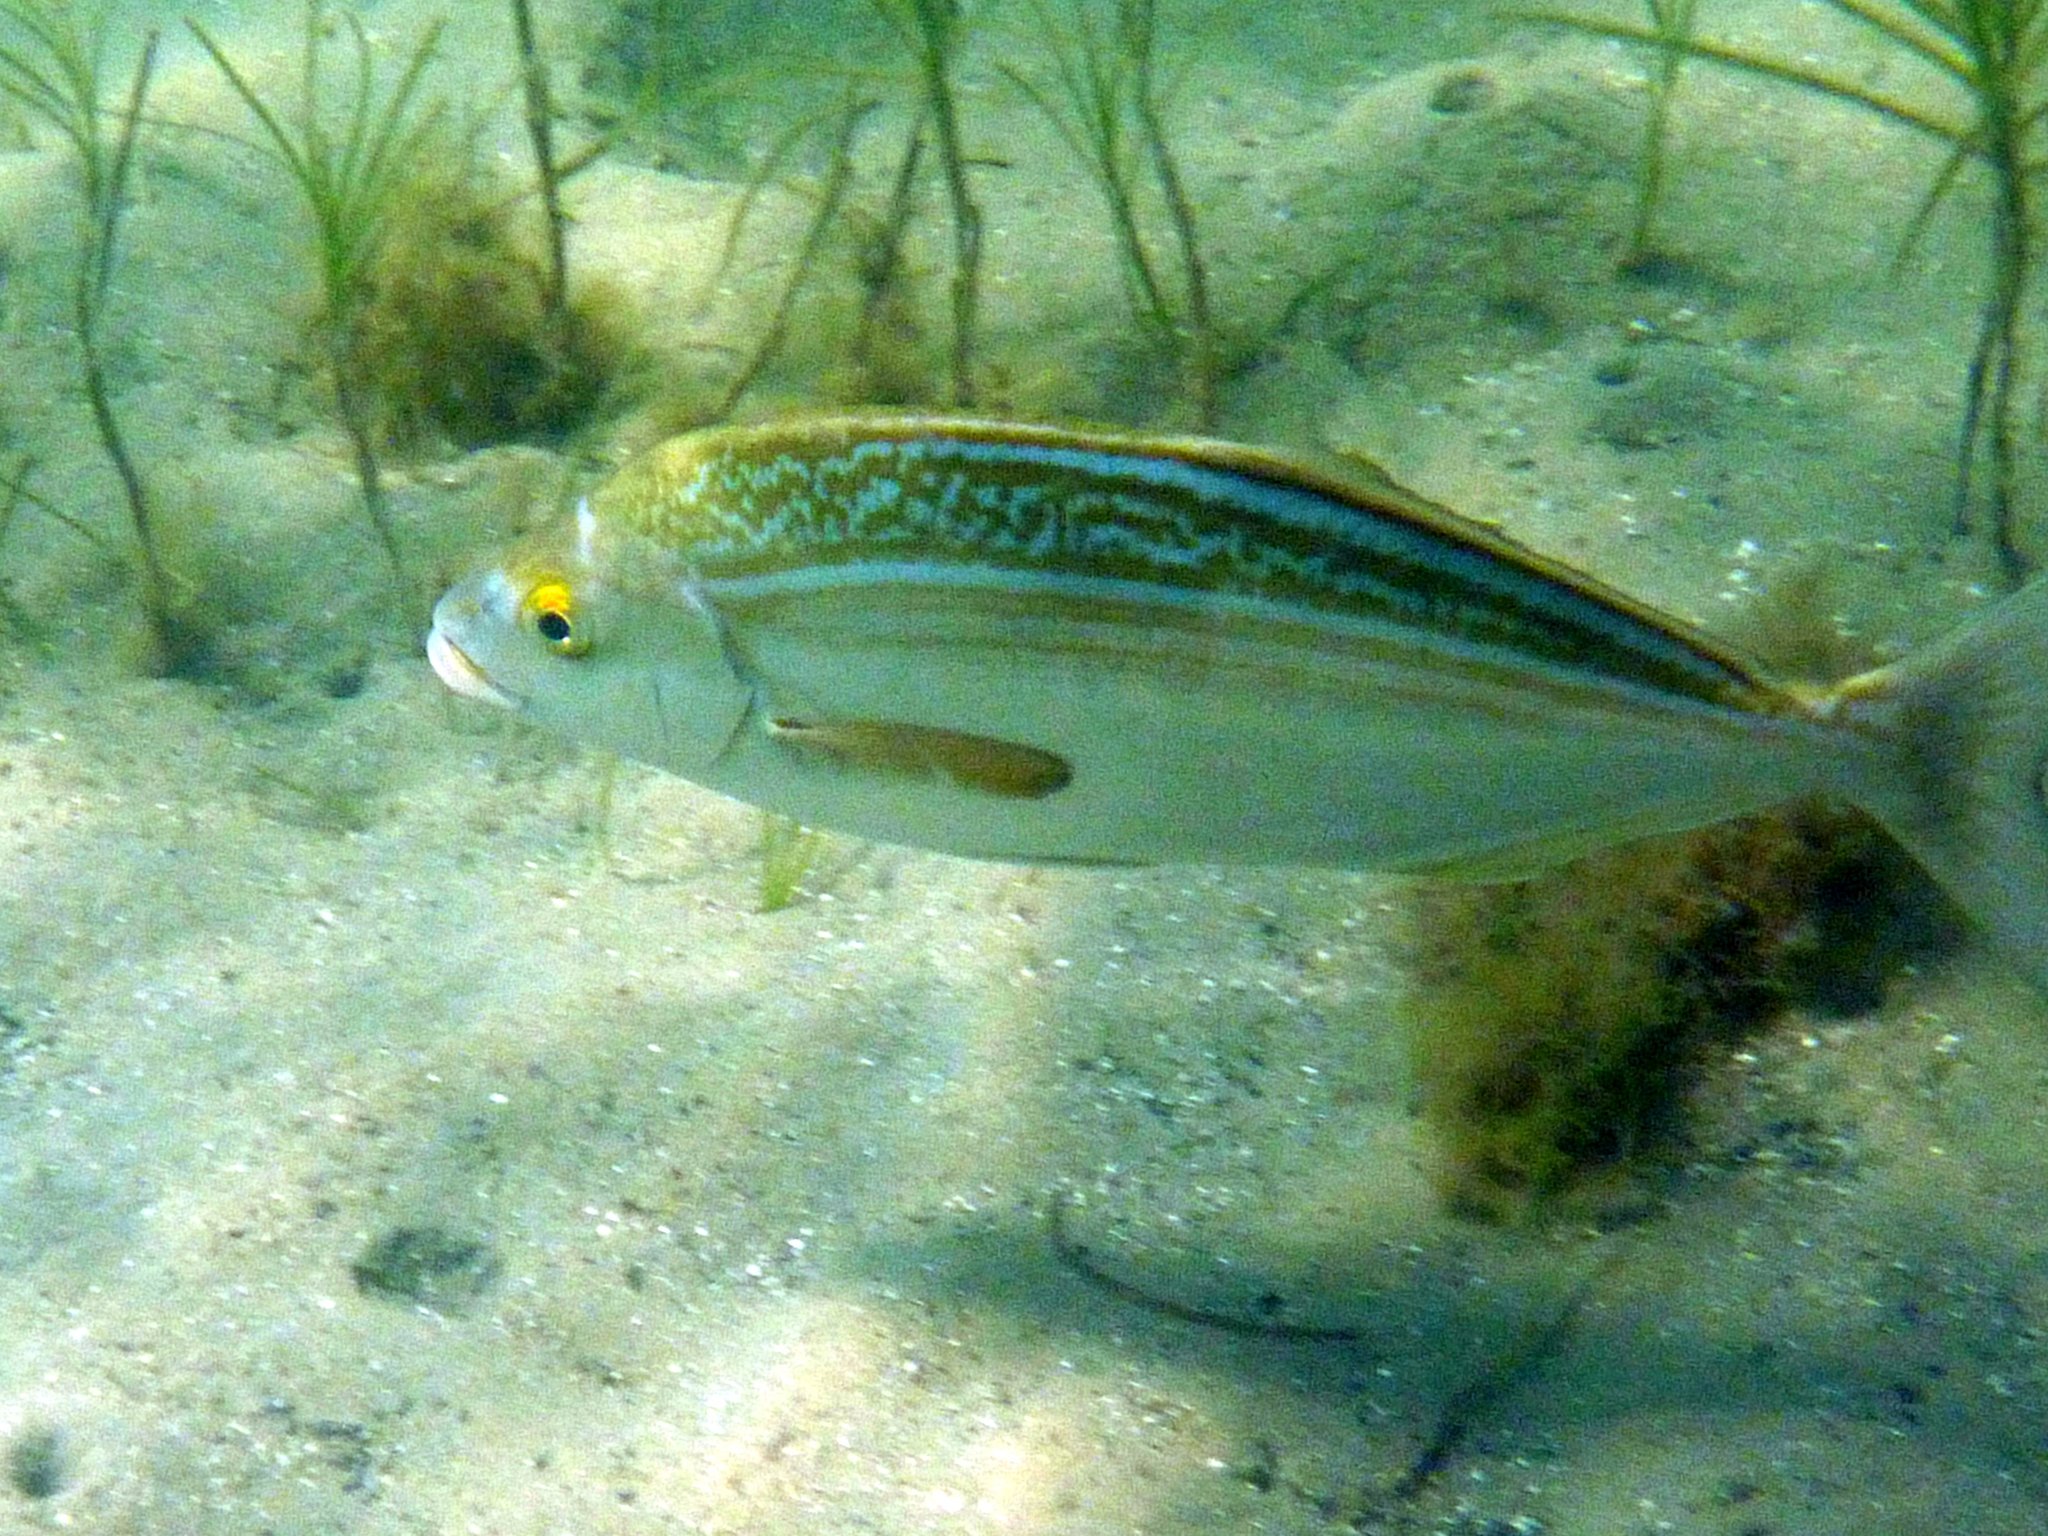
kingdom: Animalia
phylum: Chordata
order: Perciformes
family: Latridae
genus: Latridopsis
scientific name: Latridopsis forsteri
